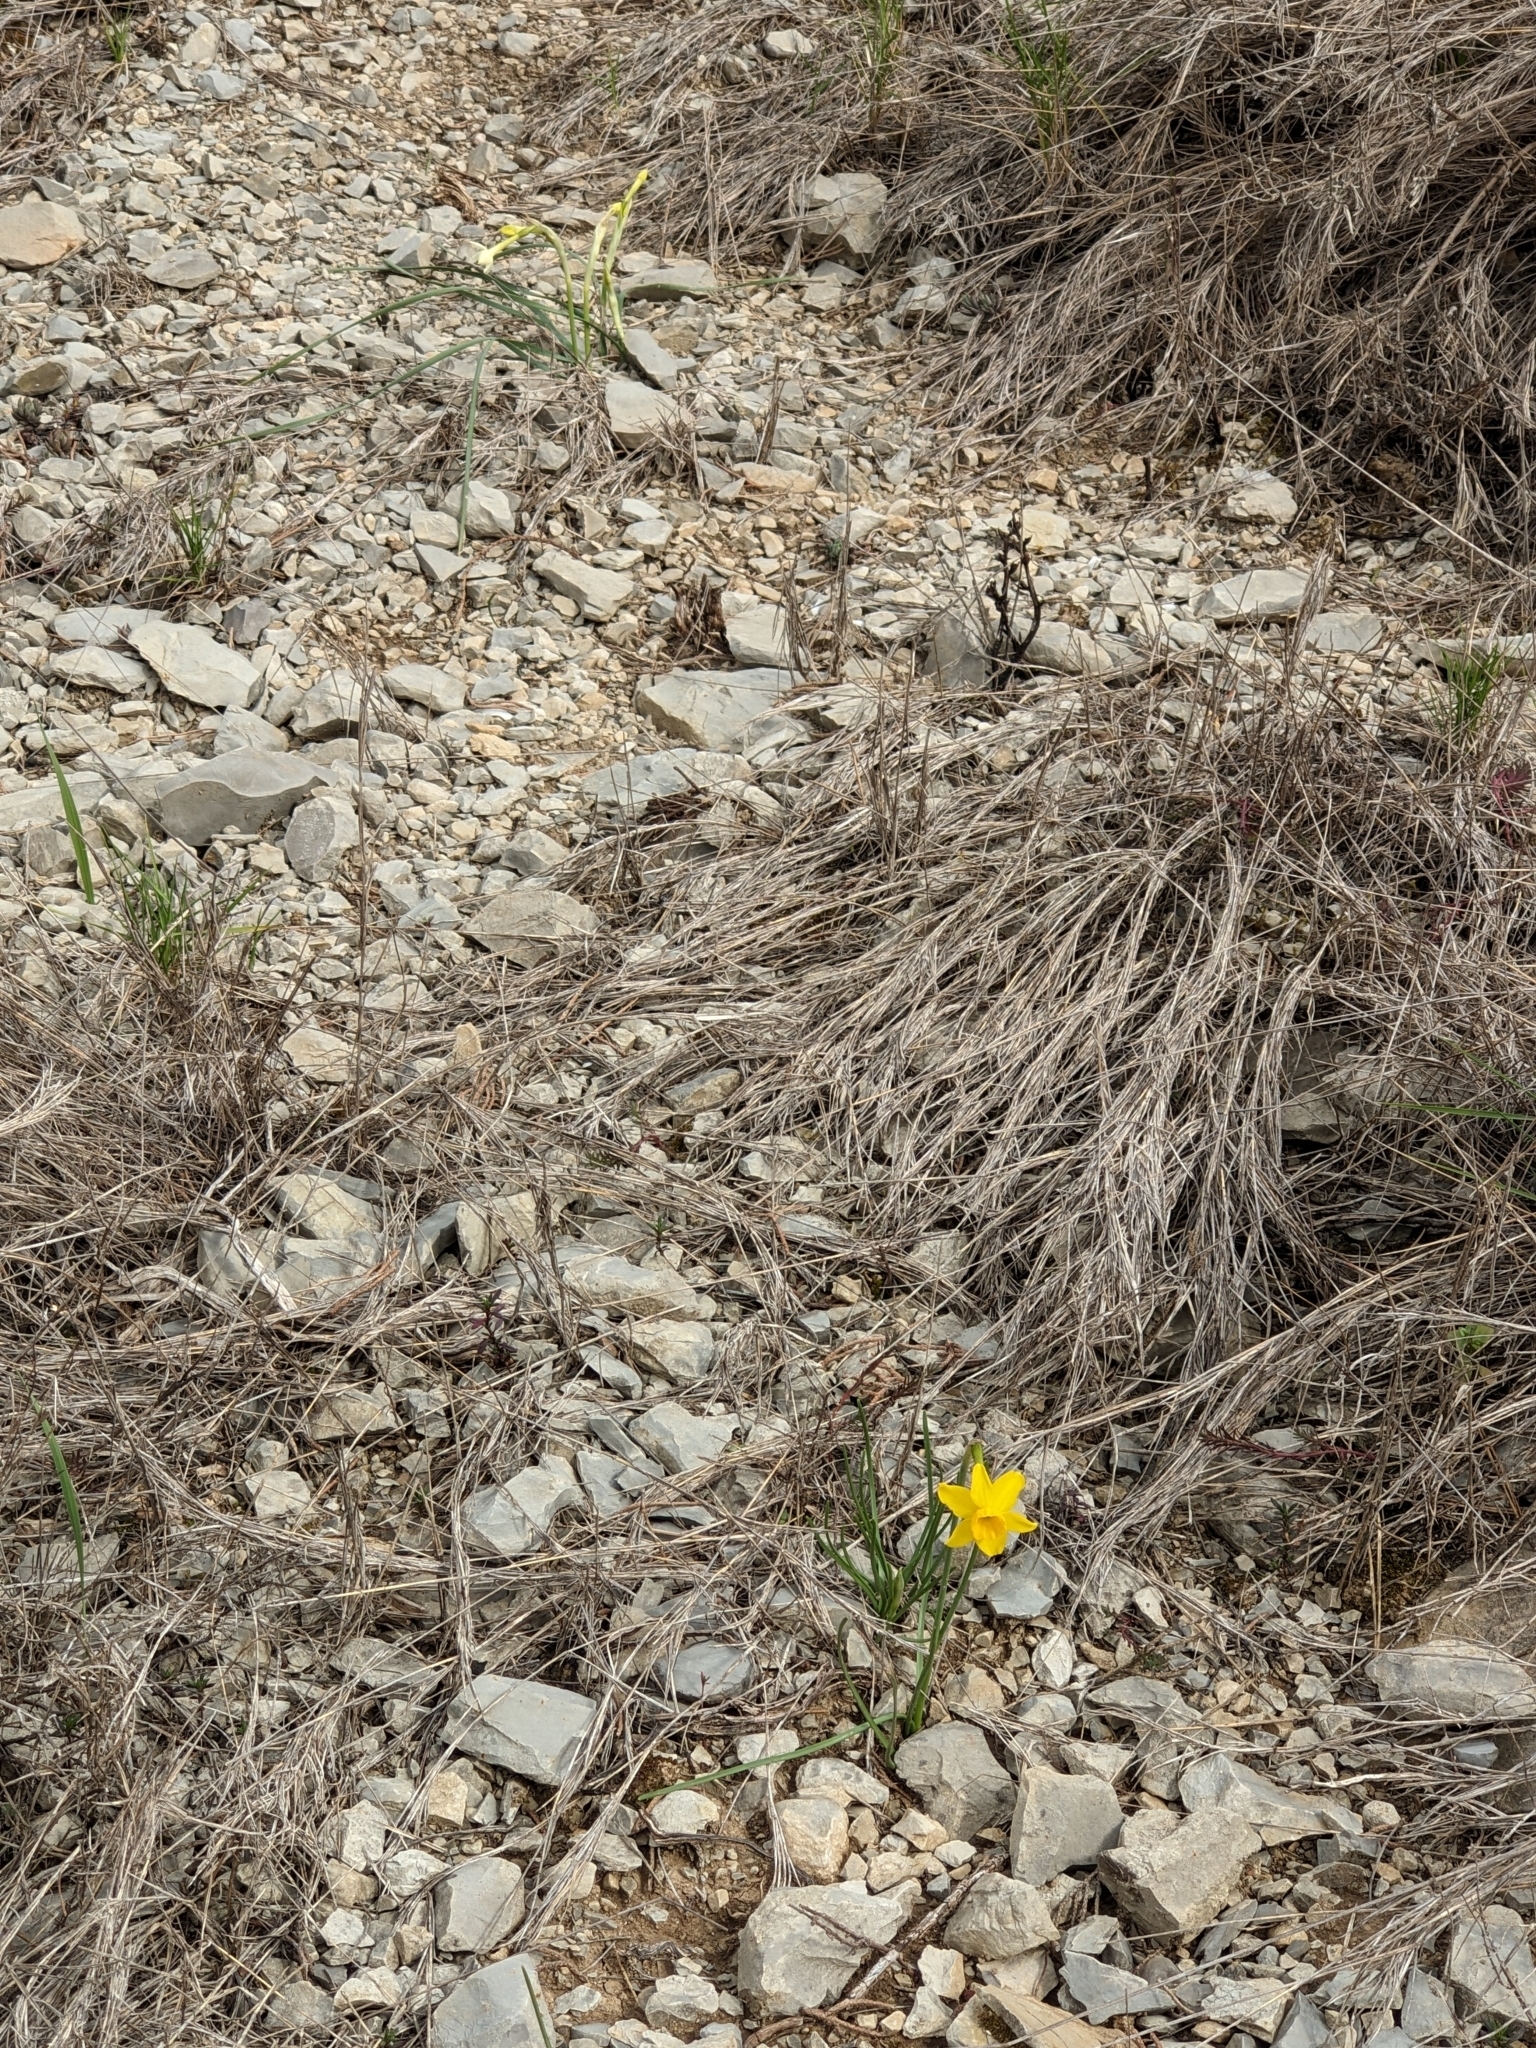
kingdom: Plantae
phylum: Tracheophyta
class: Liliopsida
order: Asparagales
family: Amaryllidaceae
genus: Narcissus
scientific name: Narcissus assoanus
